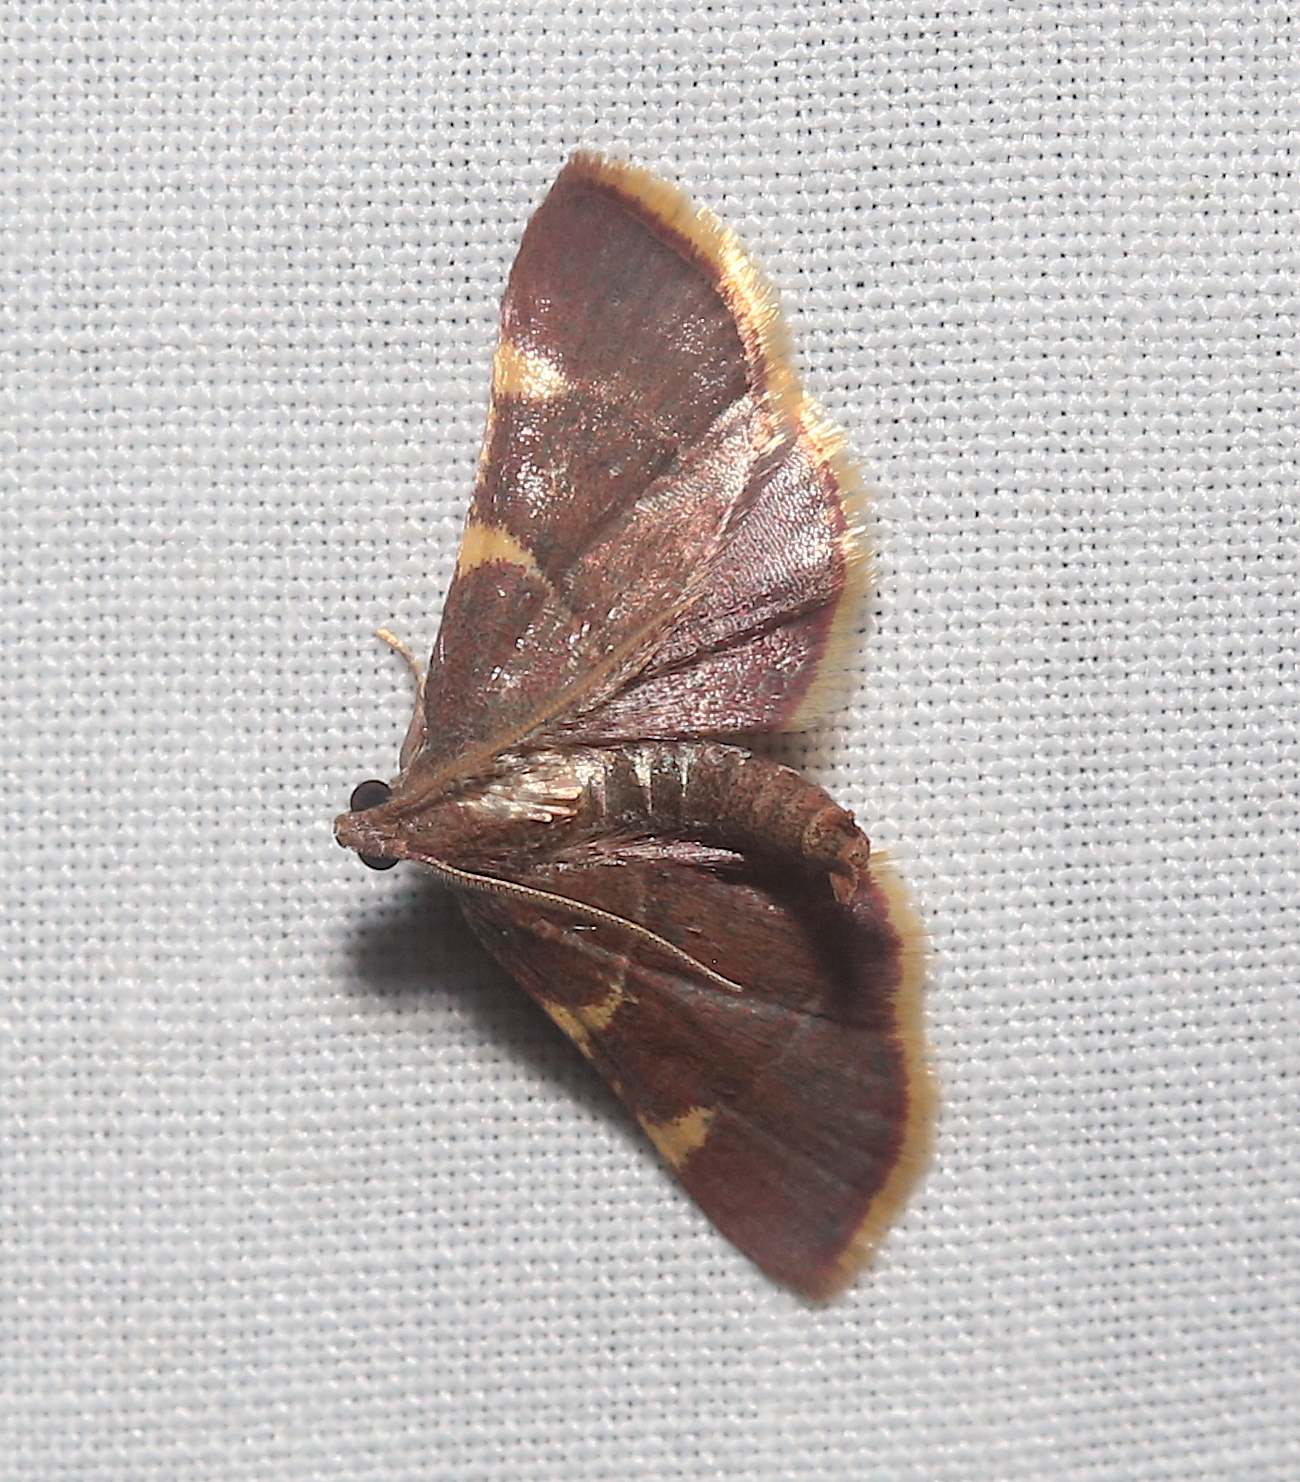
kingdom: Animalia
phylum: Arthropoda
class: Insecta
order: Lepidoptera
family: Pyralidae
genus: Hypsopygia
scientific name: Hypsopygia olinalis
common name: Yellow-fringed dolichomia moth
